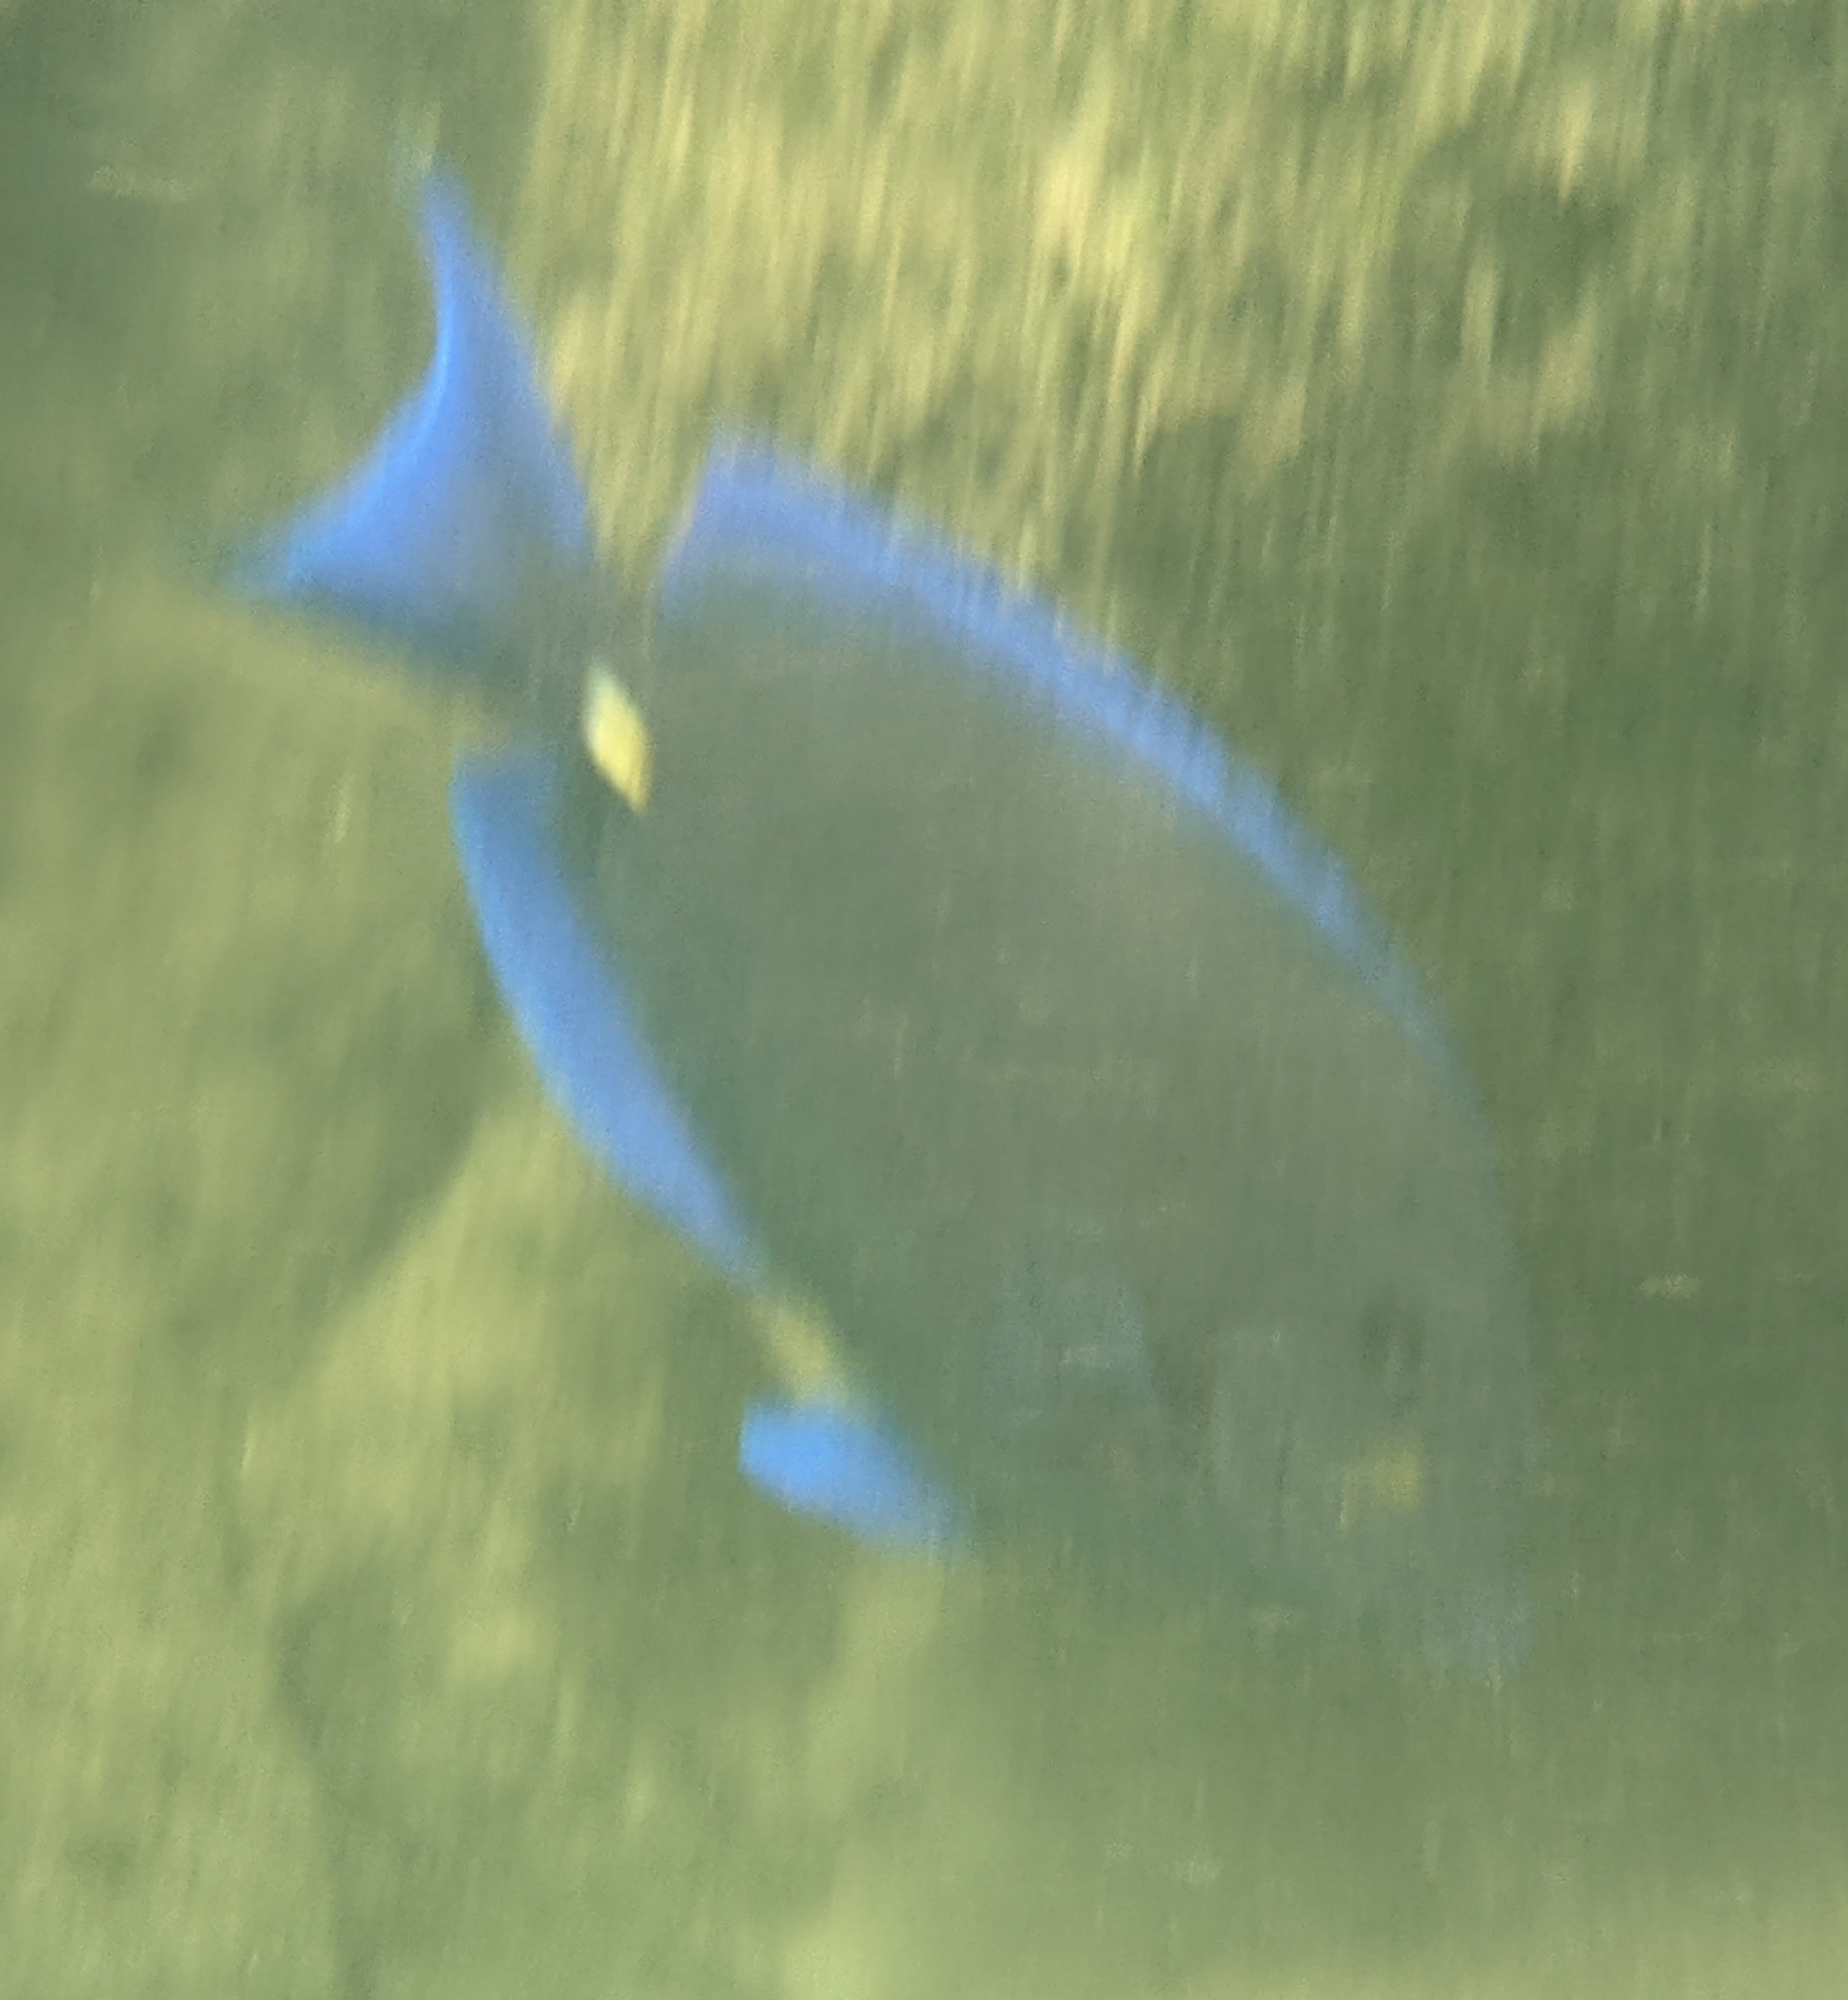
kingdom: Animalia
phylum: Chordata
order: Perciformes
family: Acanthuridae
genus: Acanthurus
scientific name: Acanthurus coeruleus
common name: Blue tang
